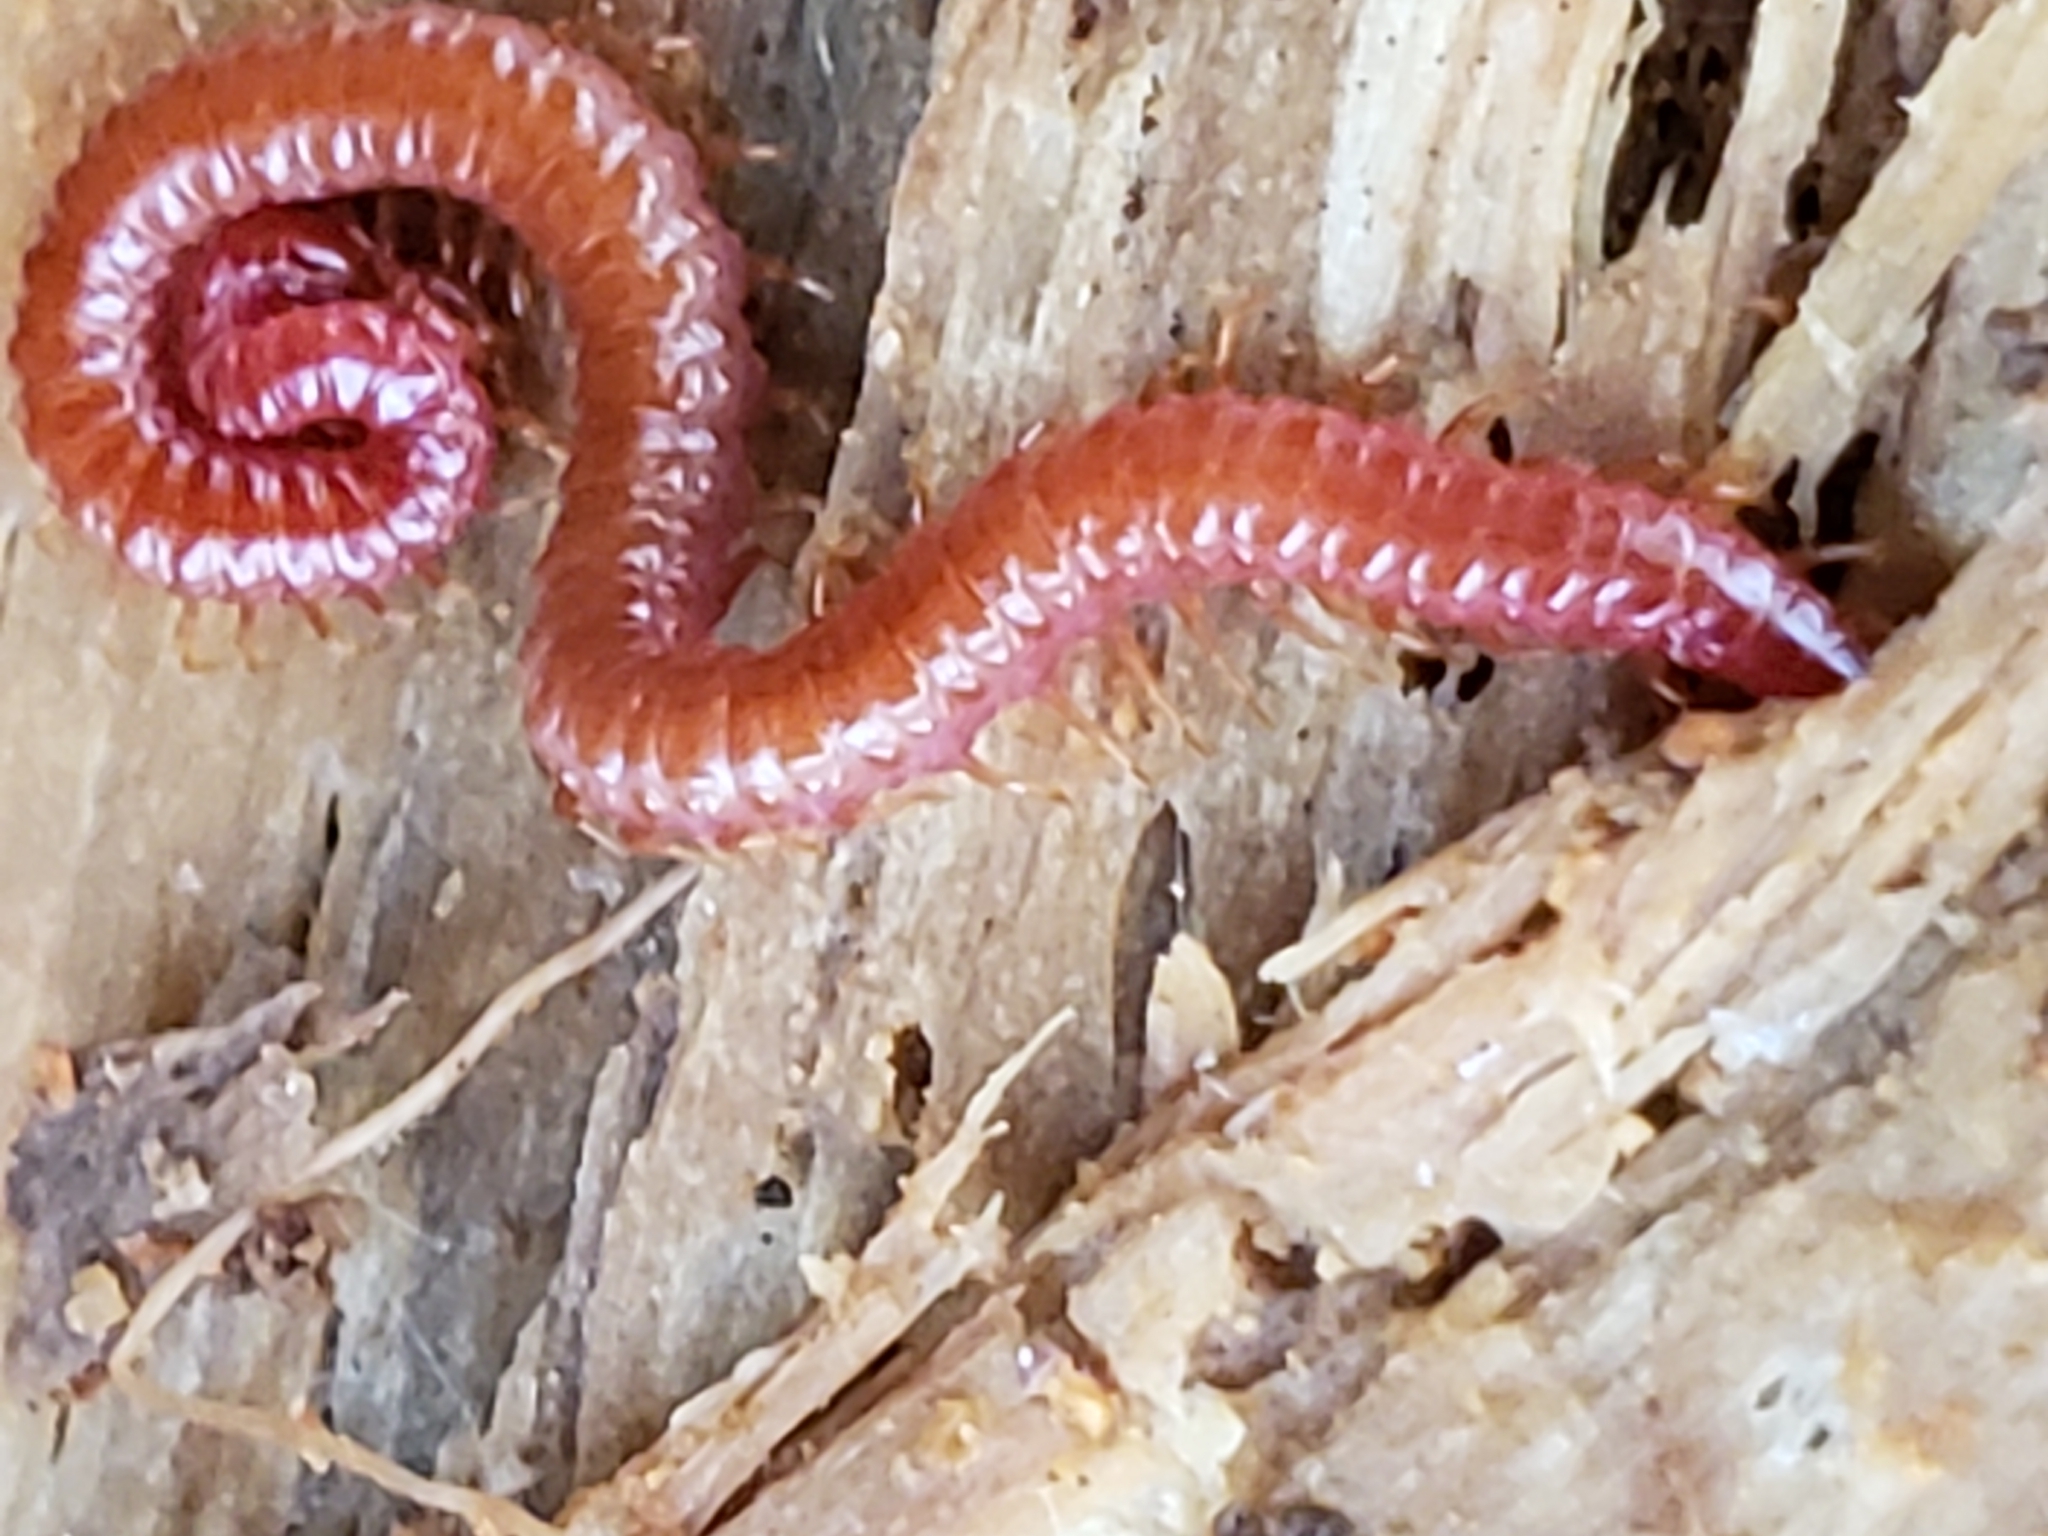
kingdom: Animalia
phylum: Arthropoda
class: Chilopoda
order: Geophilomorpha
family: Linotaeniidae
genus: Strigamia
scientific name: Strigamia bidens
